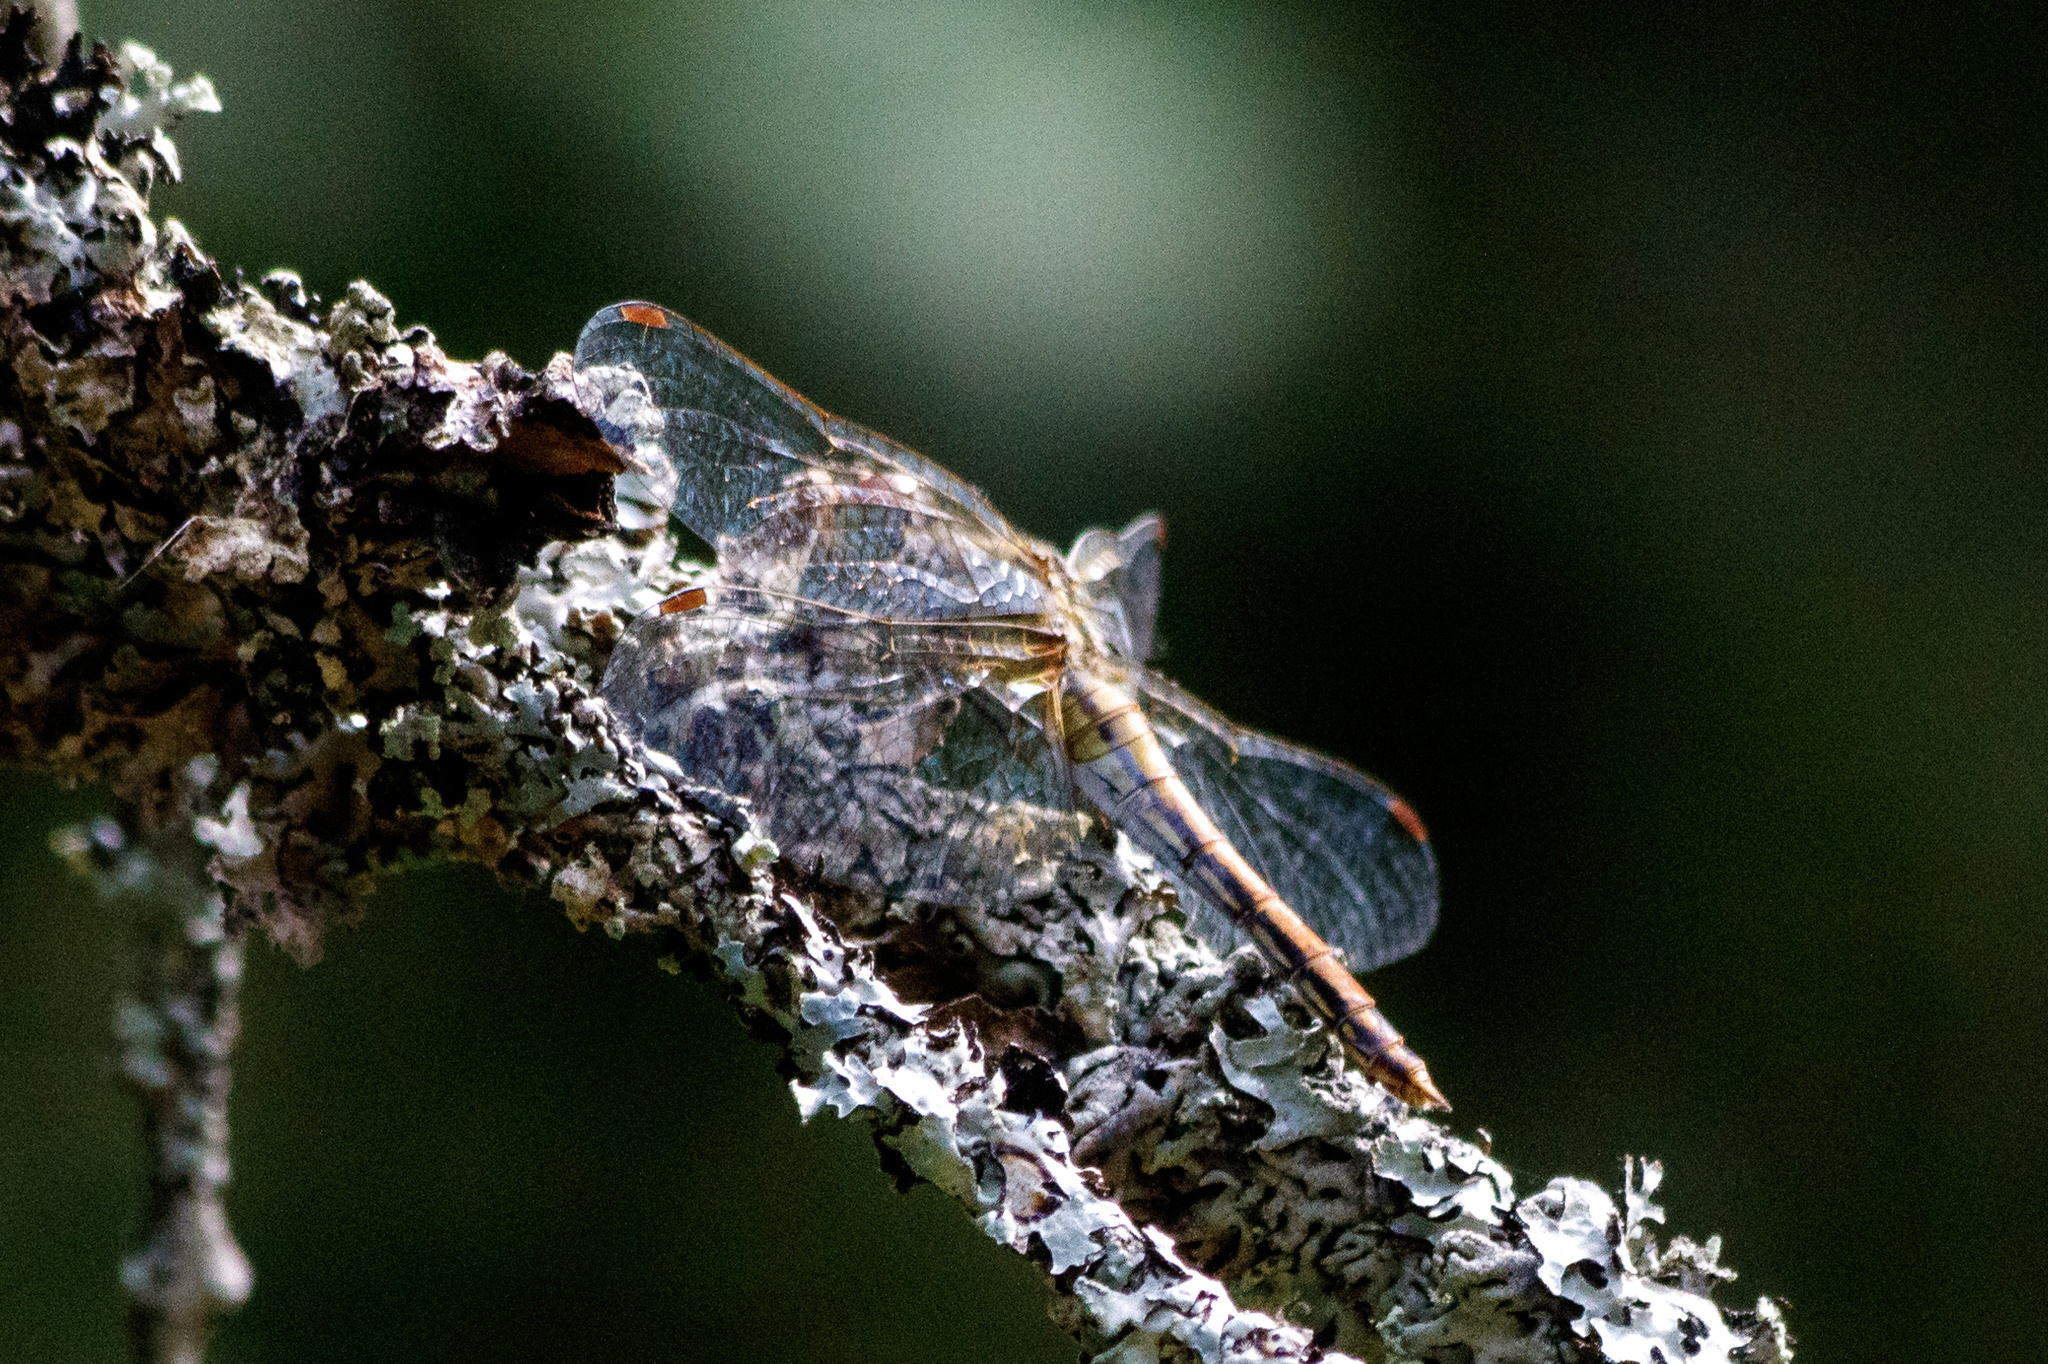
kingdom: Animalia
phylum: Arthropoda
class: Insecta
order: Odonata
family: Libellulidae
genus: Sympetrum
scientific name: Sympetrum flaveolum
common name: Yellow-winged darter
